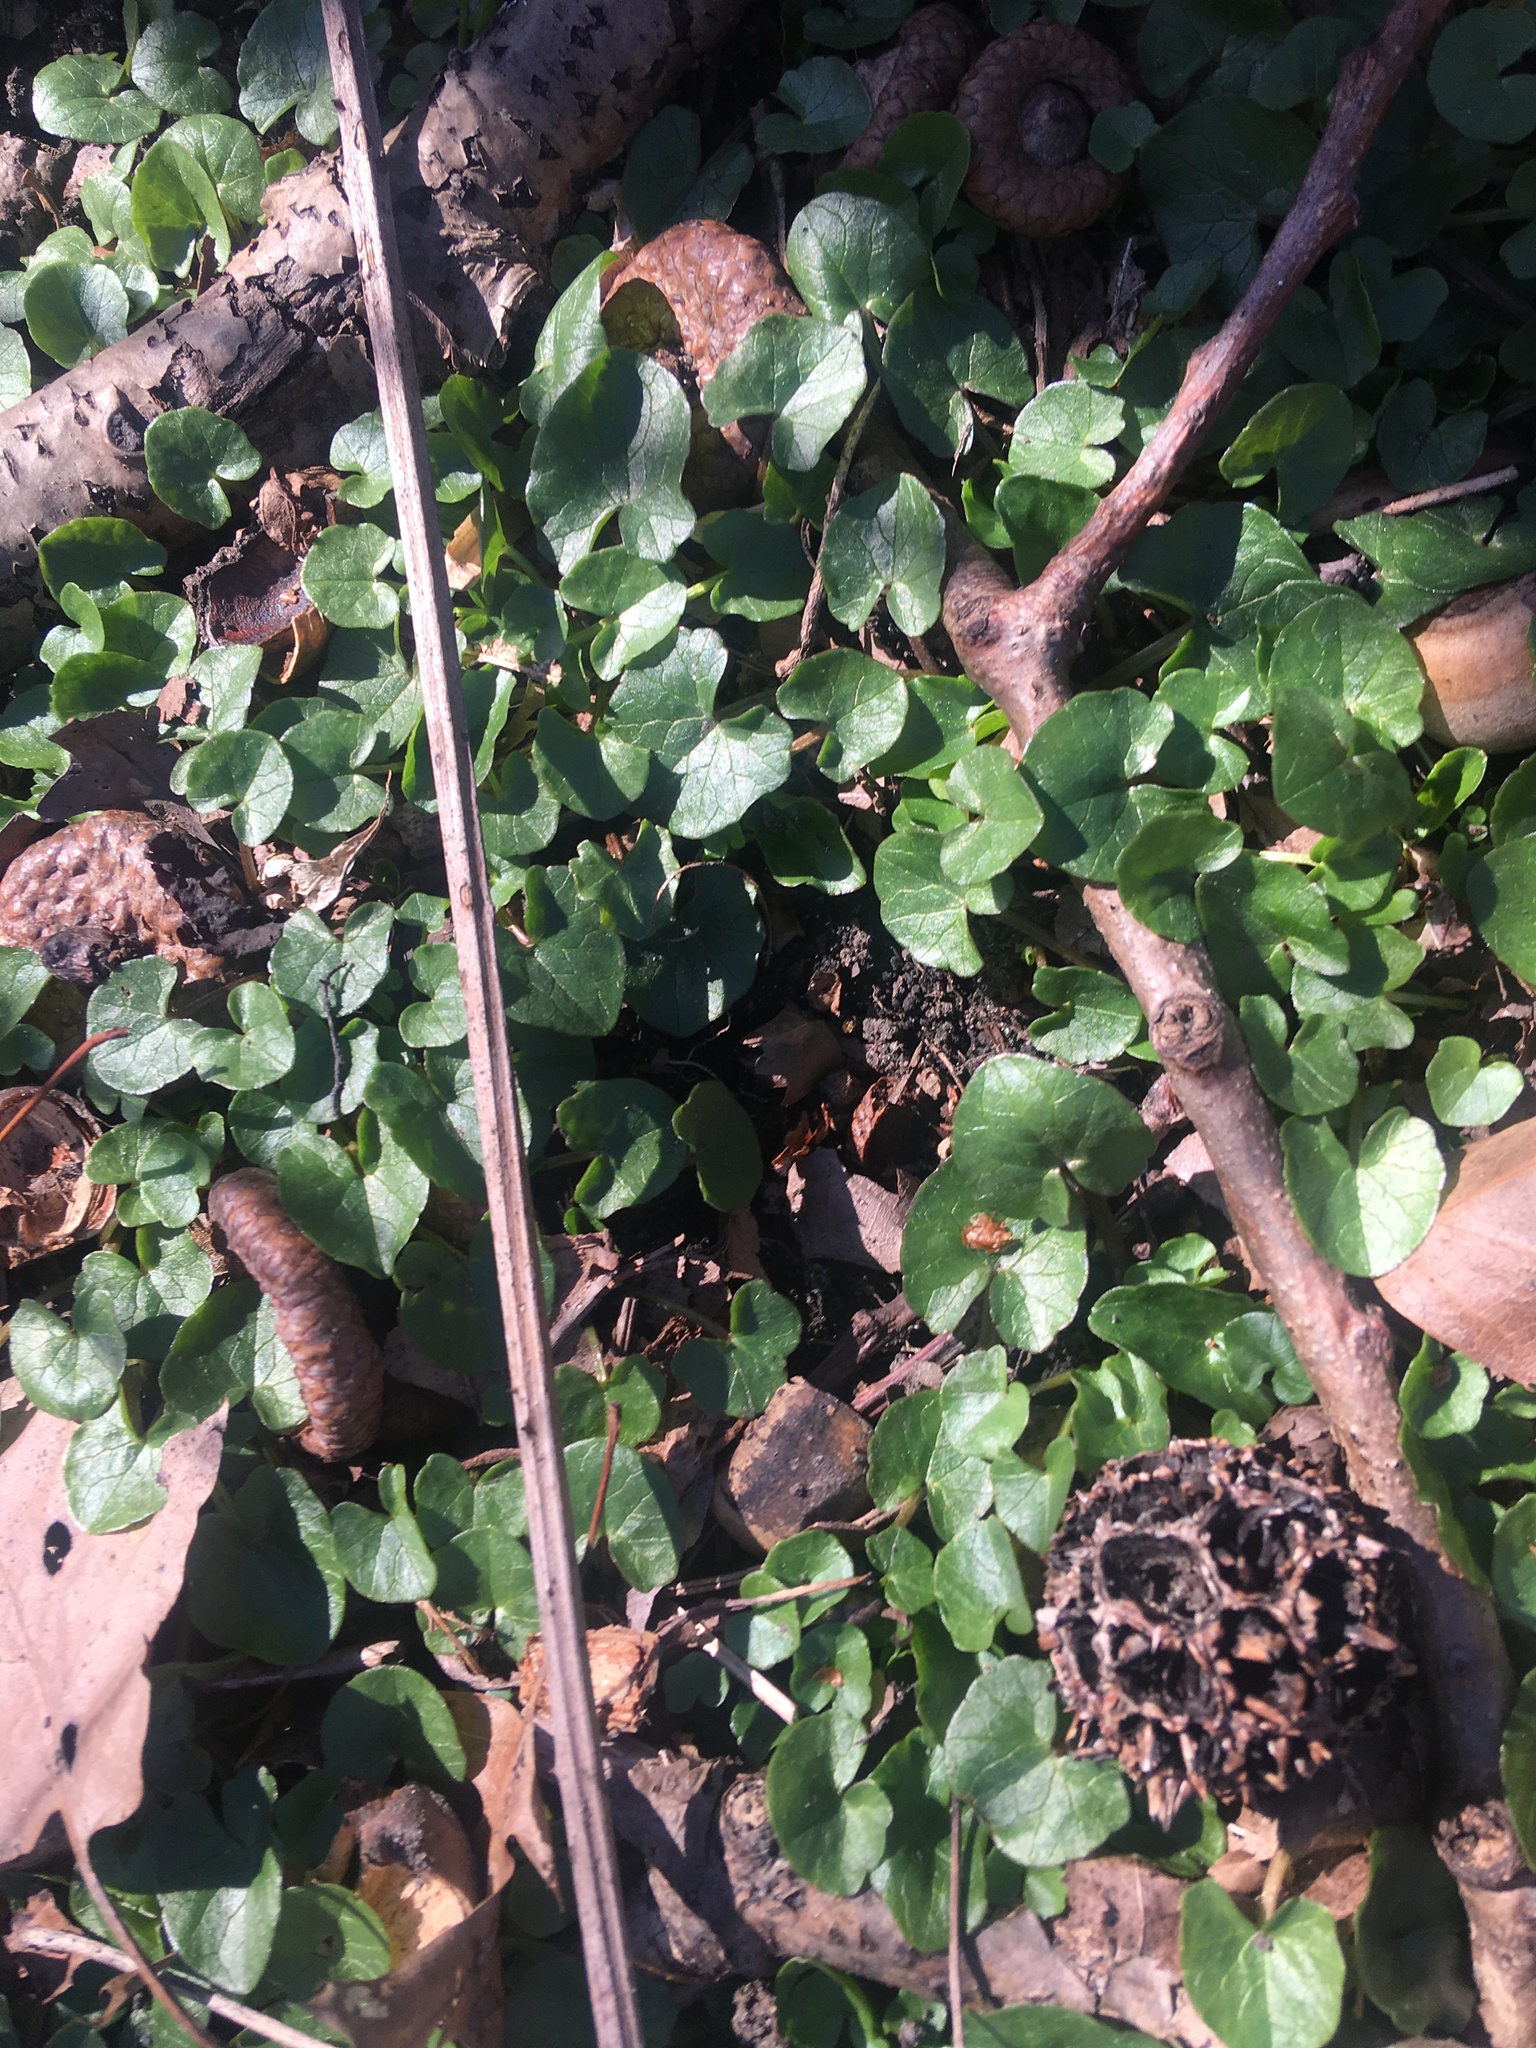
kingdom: Plantae
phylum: Tracheophyta
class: Magnoliopsida
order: Ranunculales
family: Ranunculaceae
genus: Ficaria
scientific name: Ficaria verna
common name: Lesser celandine
